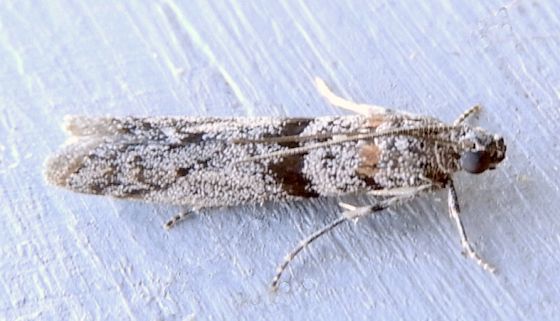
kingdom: Animalia
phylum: Arthropoda
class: Insecta
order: Lepidoptera
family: Pyralidae
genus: Myelopsis
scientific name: Myelopsis minutularia
